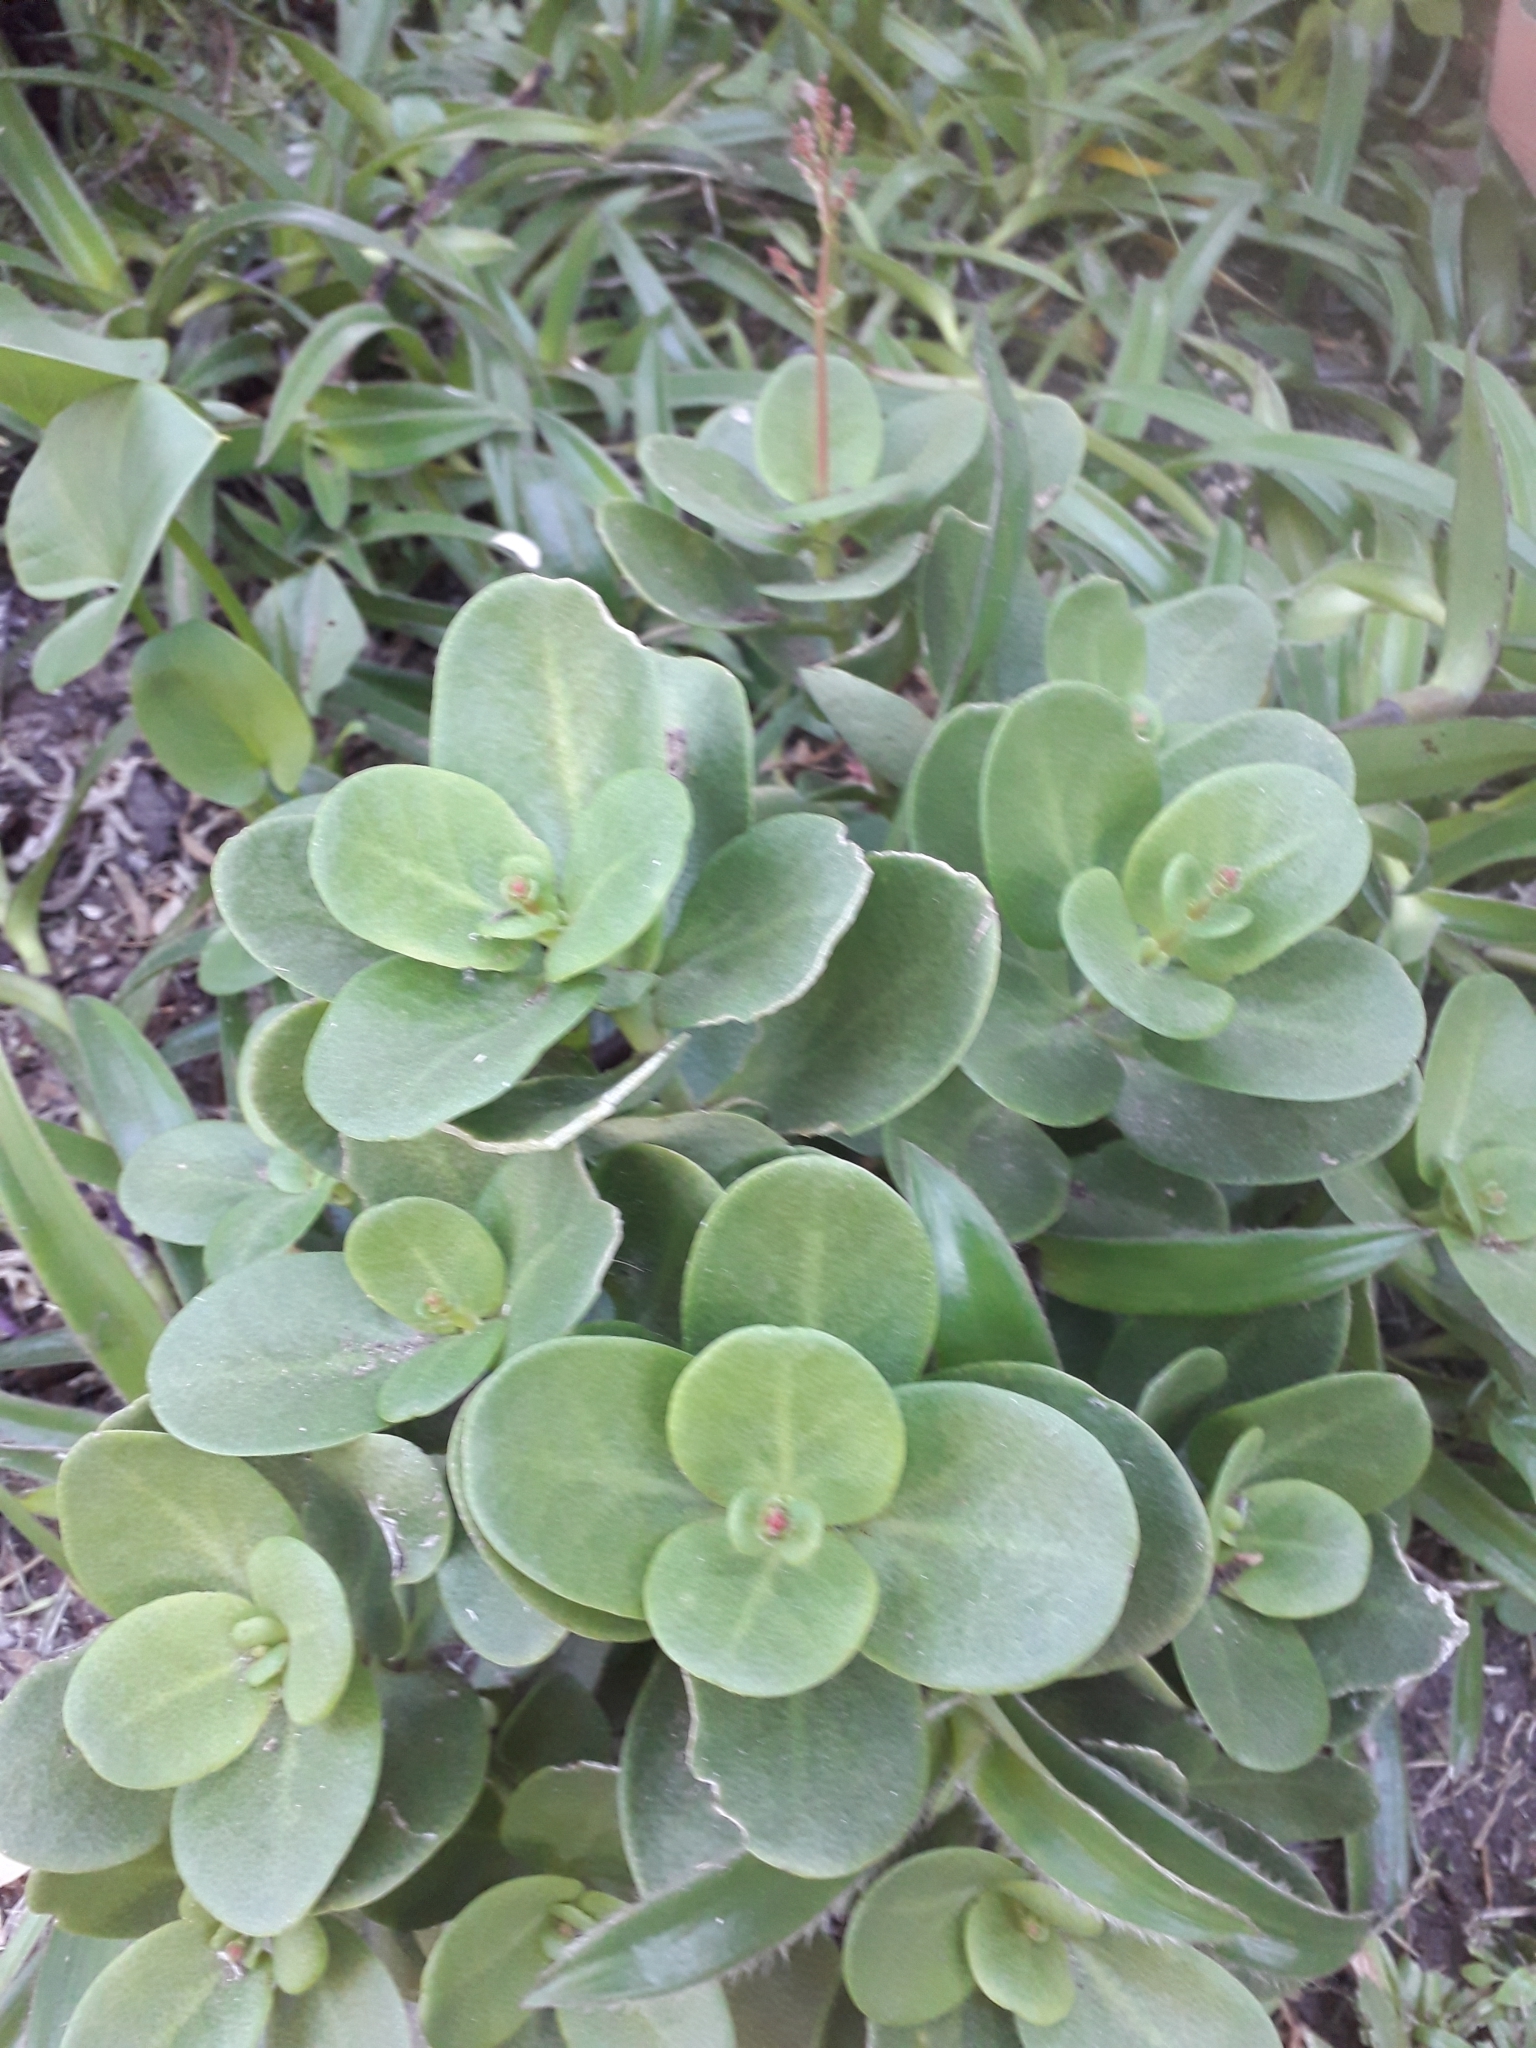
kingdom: Plantae
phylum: Tracheophyta
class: Magnoliopsida
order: Saxifragales
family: Crassulaceae
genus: Crassula
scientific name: Crassula multicava
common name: Cape province pygmyweed
